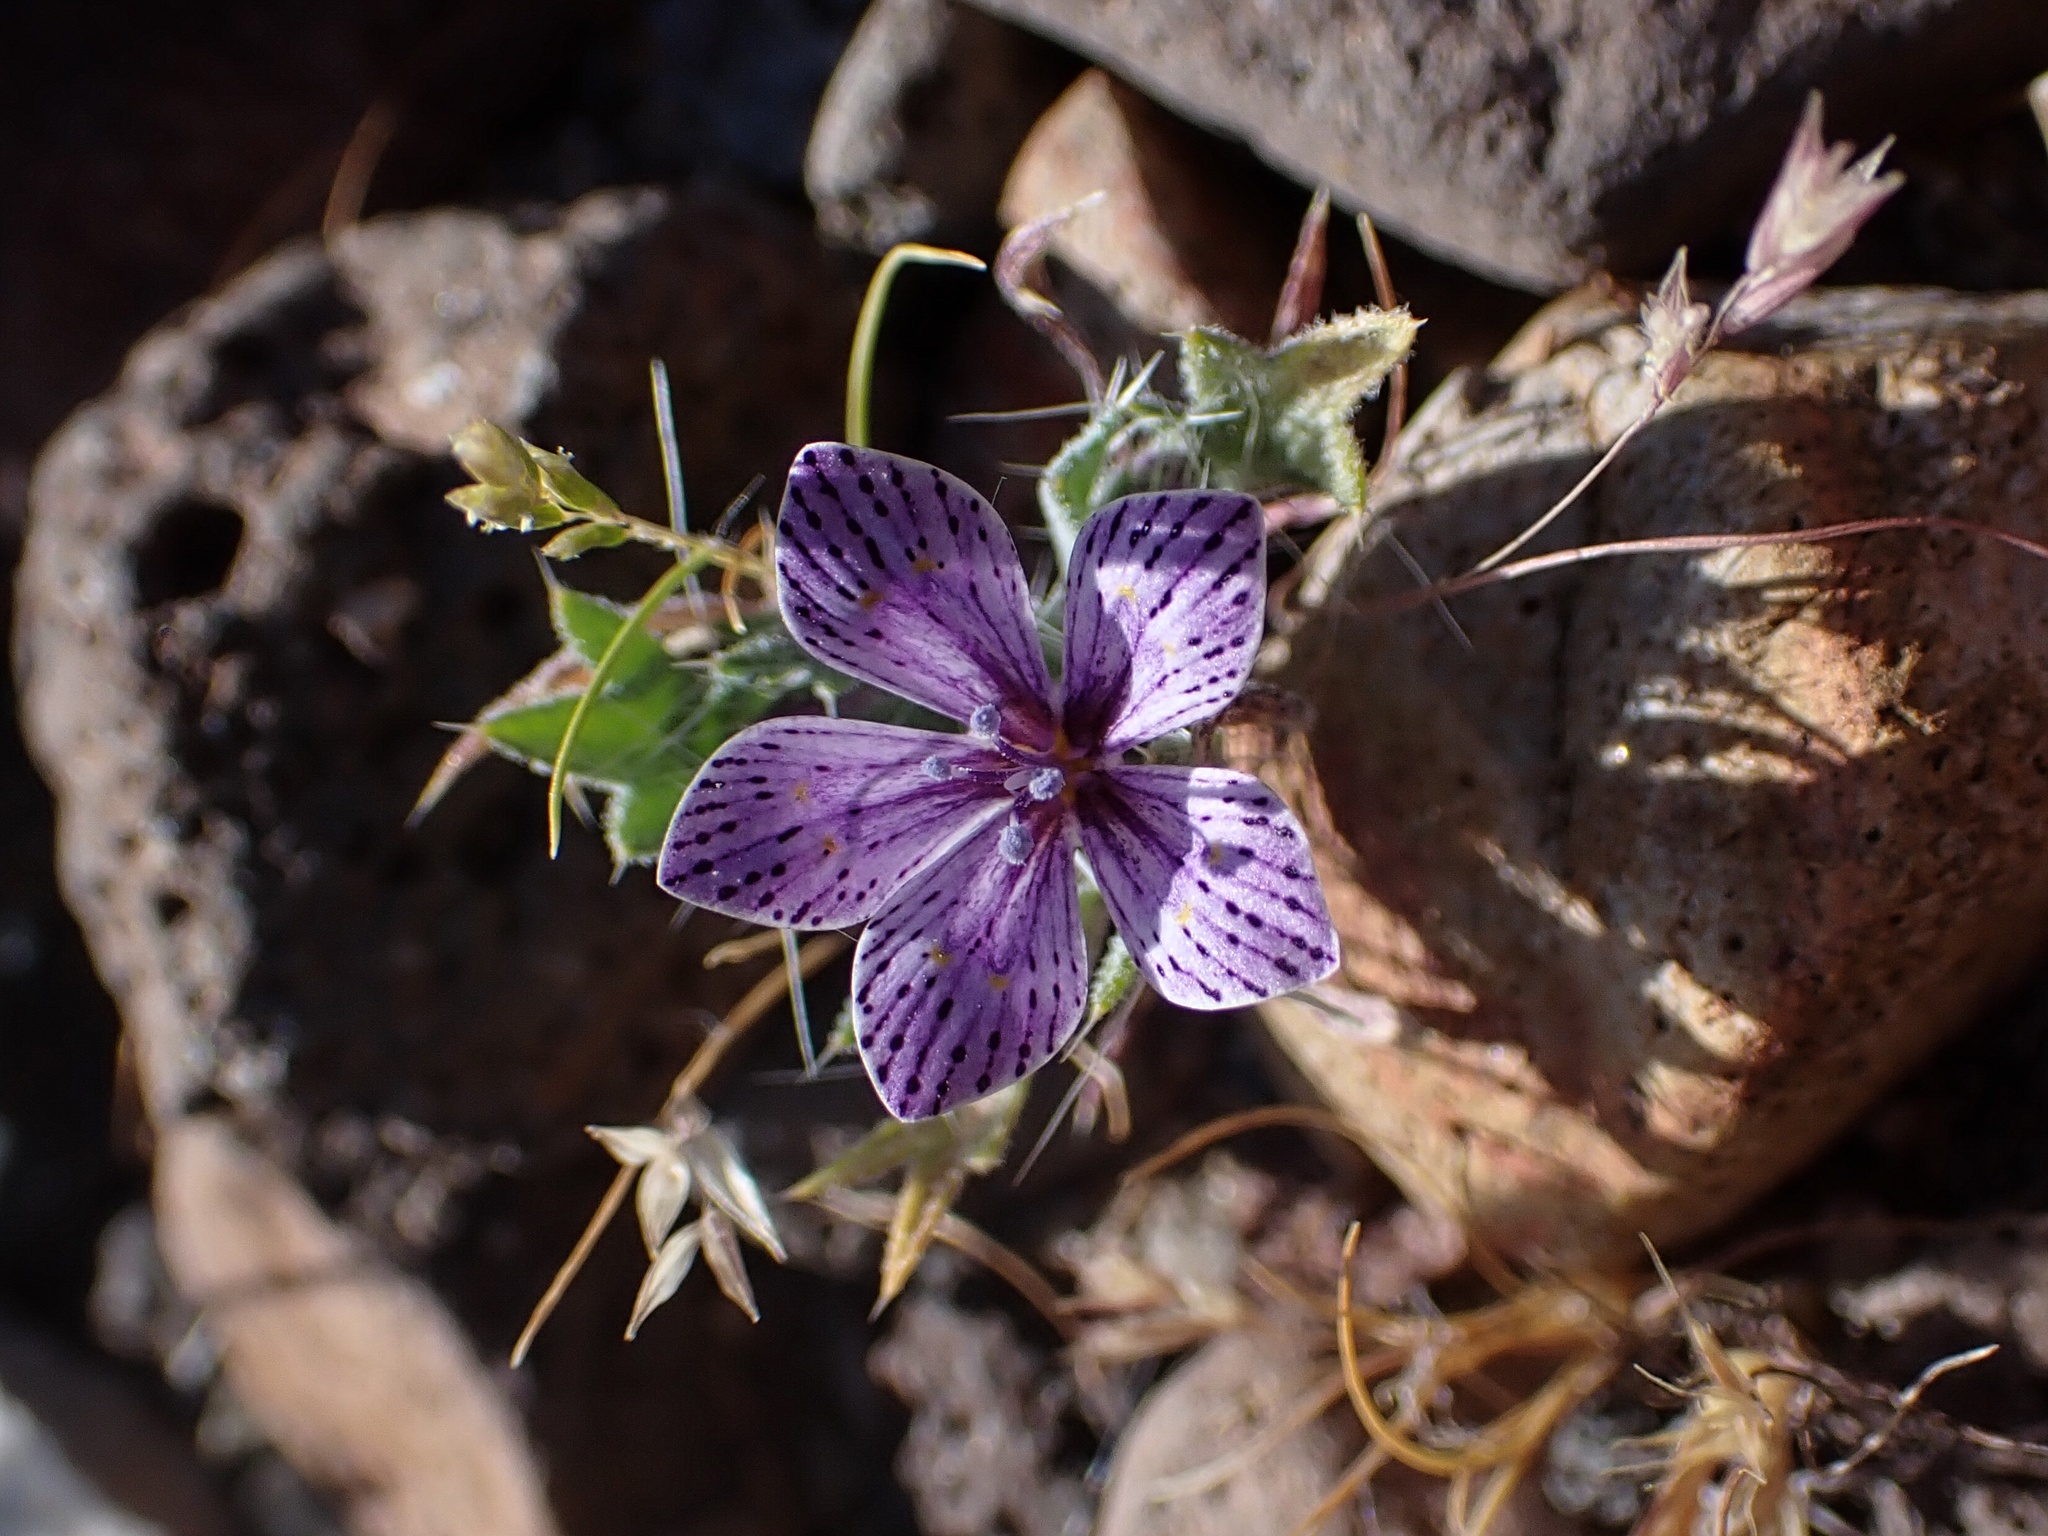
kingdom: Plantae
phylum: Tracheophyta
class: Magnoliopsida
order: Ericales
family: Polemoniaceae
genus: Langloisia
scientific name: Langloisia setosissima
